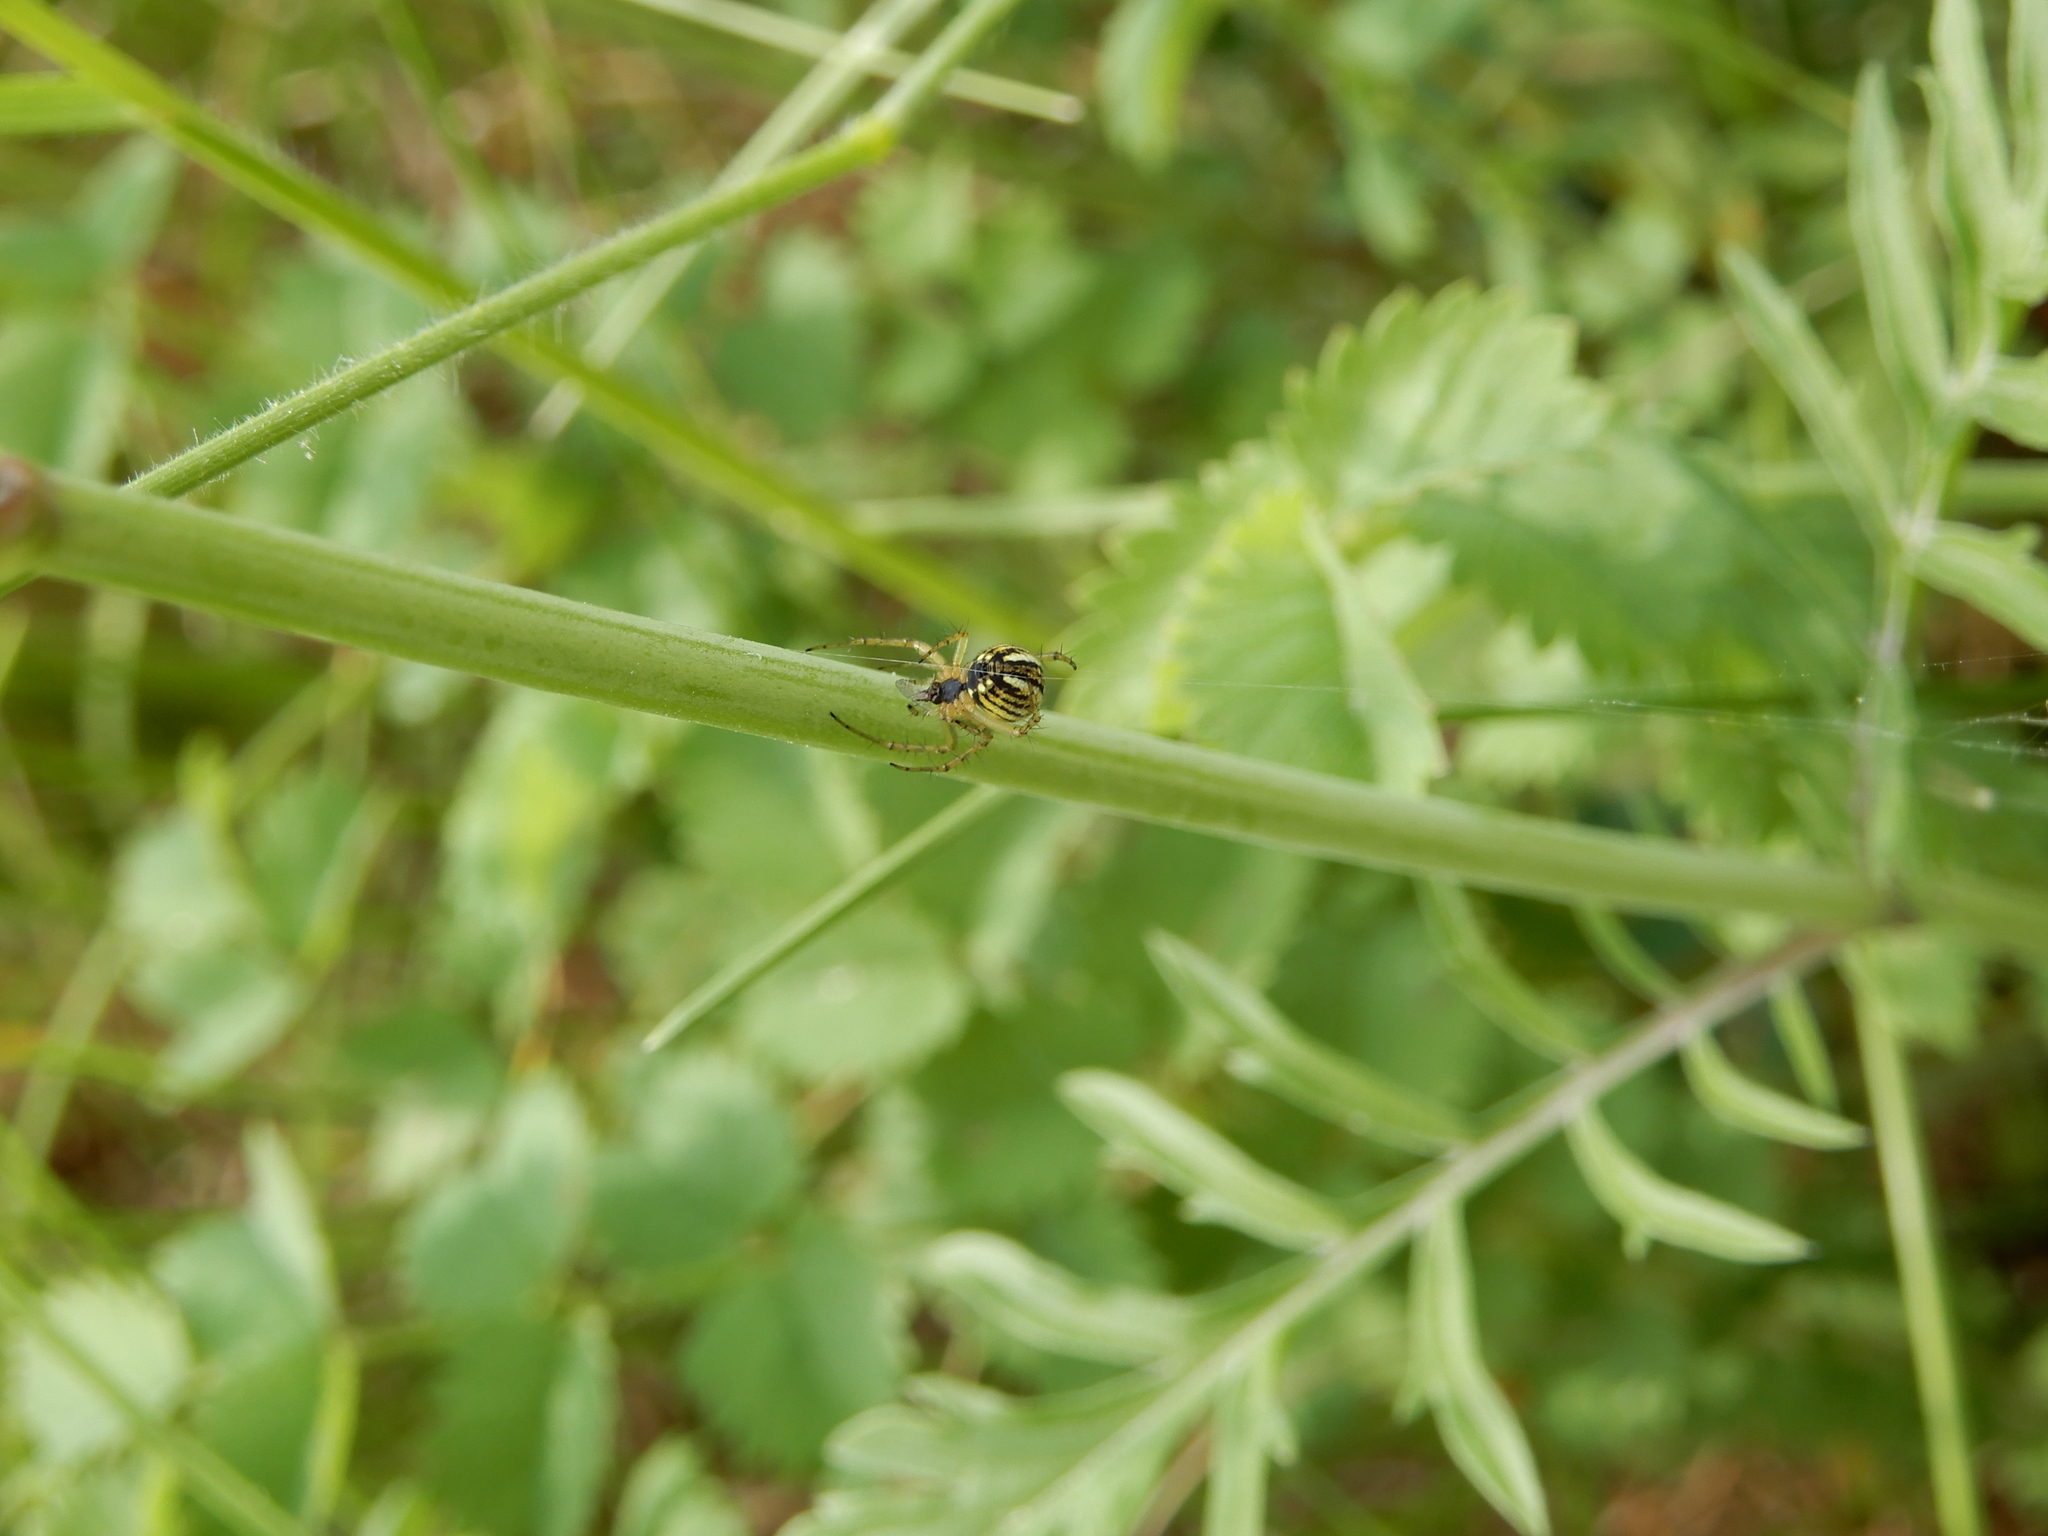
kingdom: Animalia
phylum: Arthropoda
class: Arachnida
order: Araneae
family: Araneidae
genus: Mangora
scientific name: Mangora acalypha
